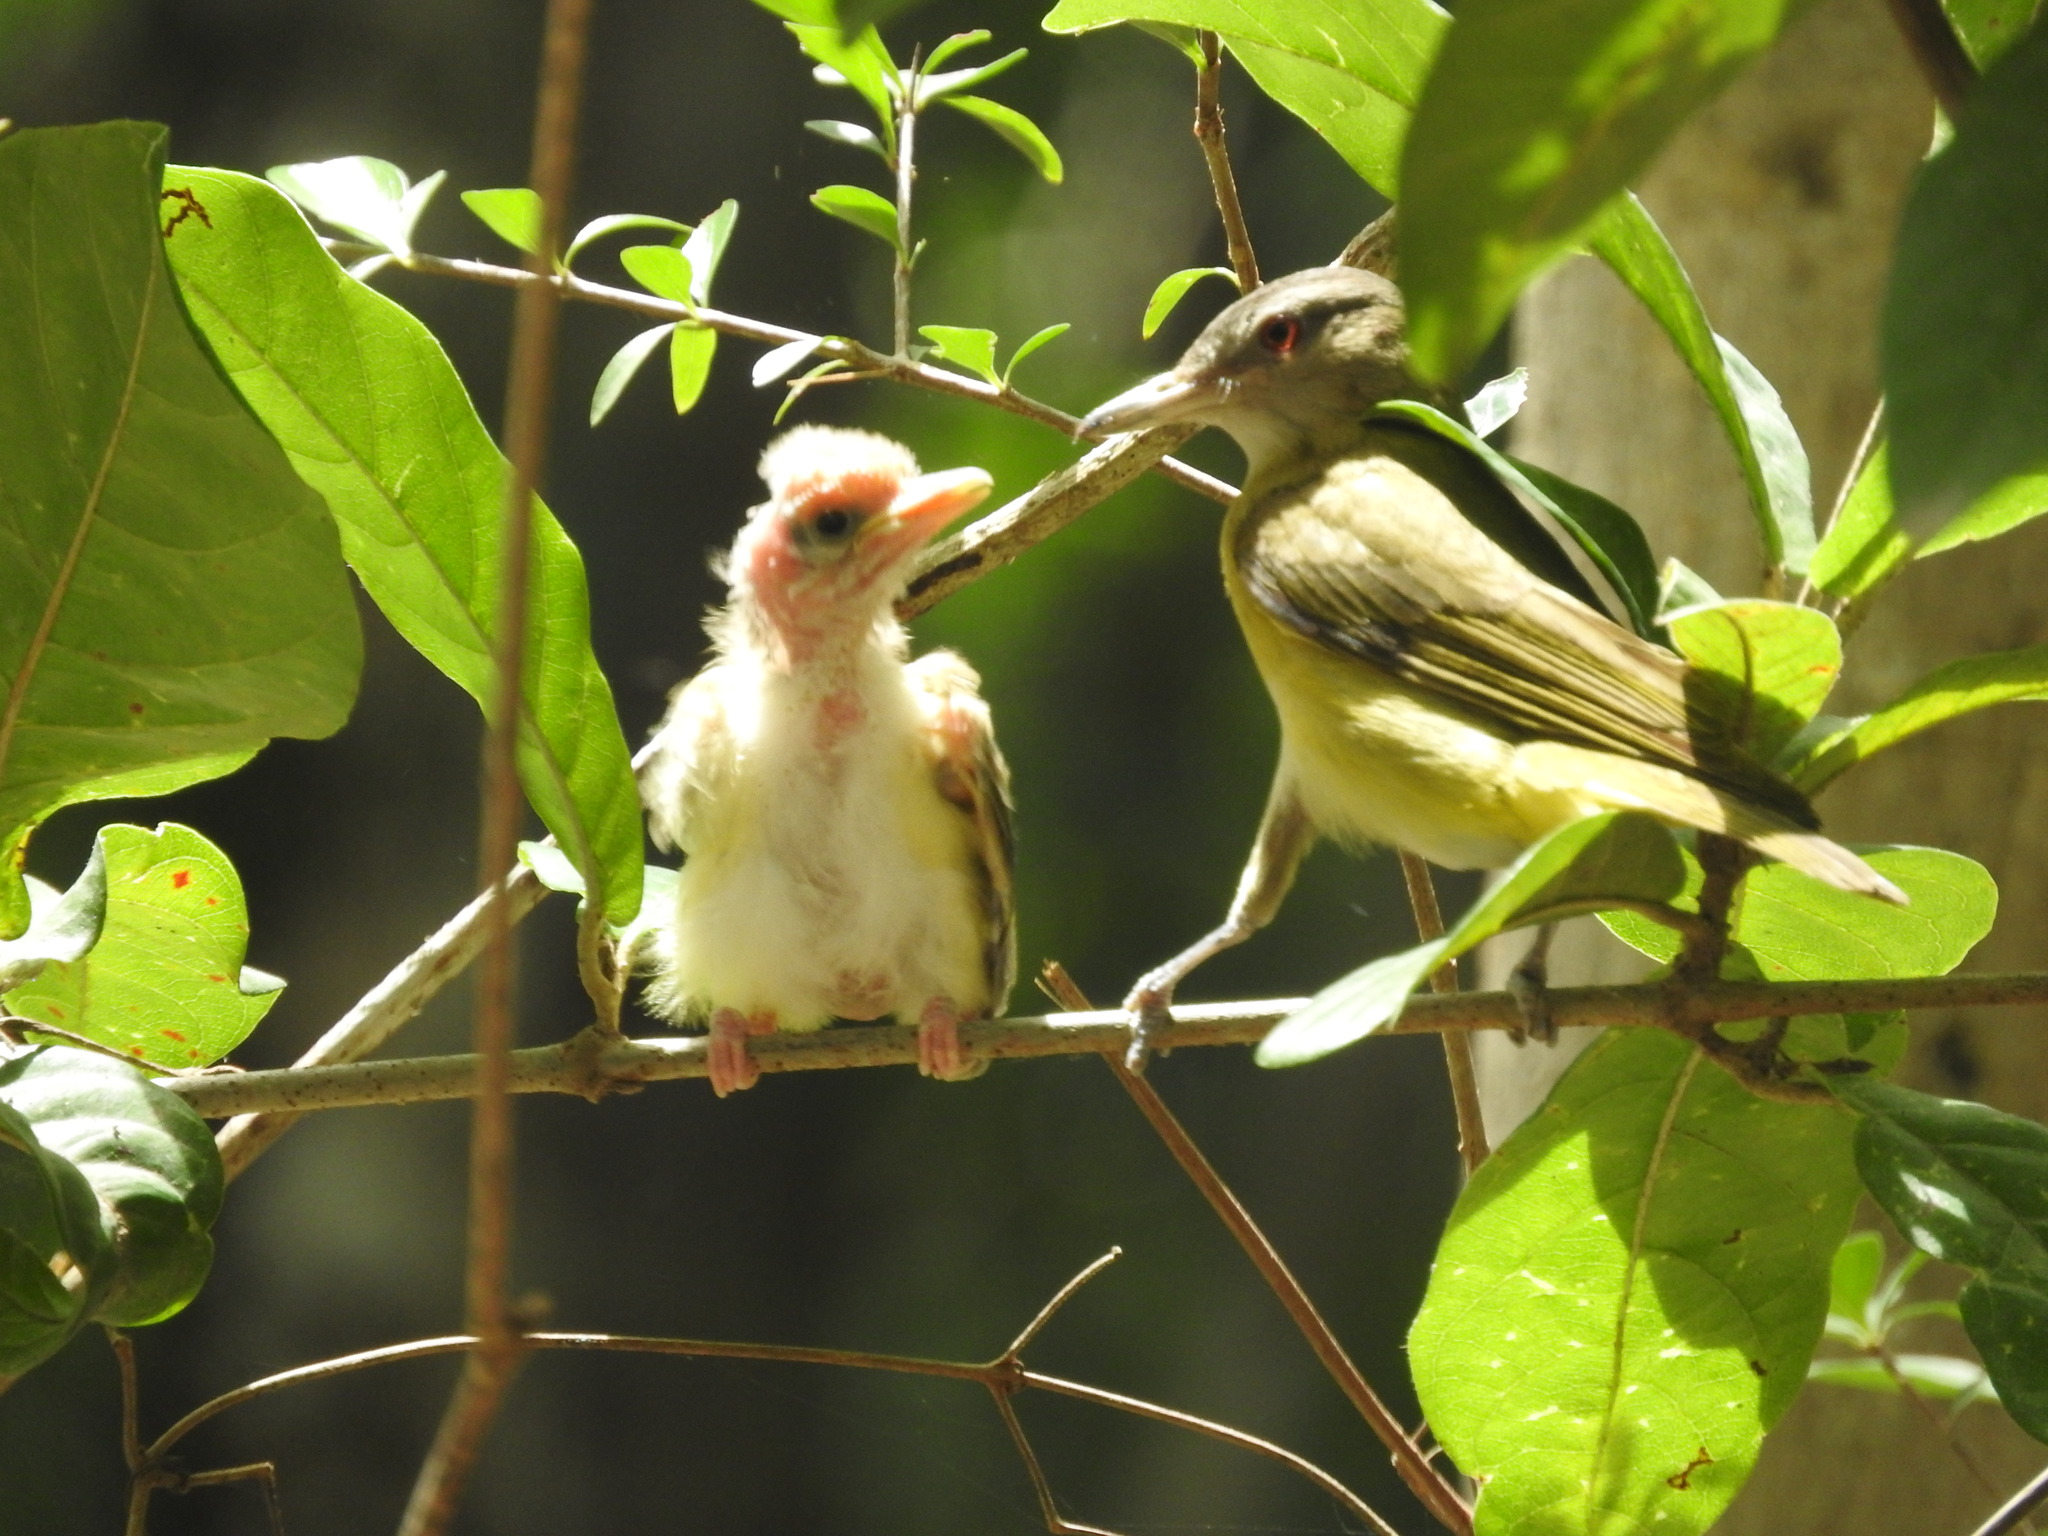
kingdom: Animalia
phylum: Chordata
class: Aves
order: Passeriformes
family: Vireonidae
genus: Vireo
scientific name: Vireo flavoviridis
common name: Yellow-green vireo
